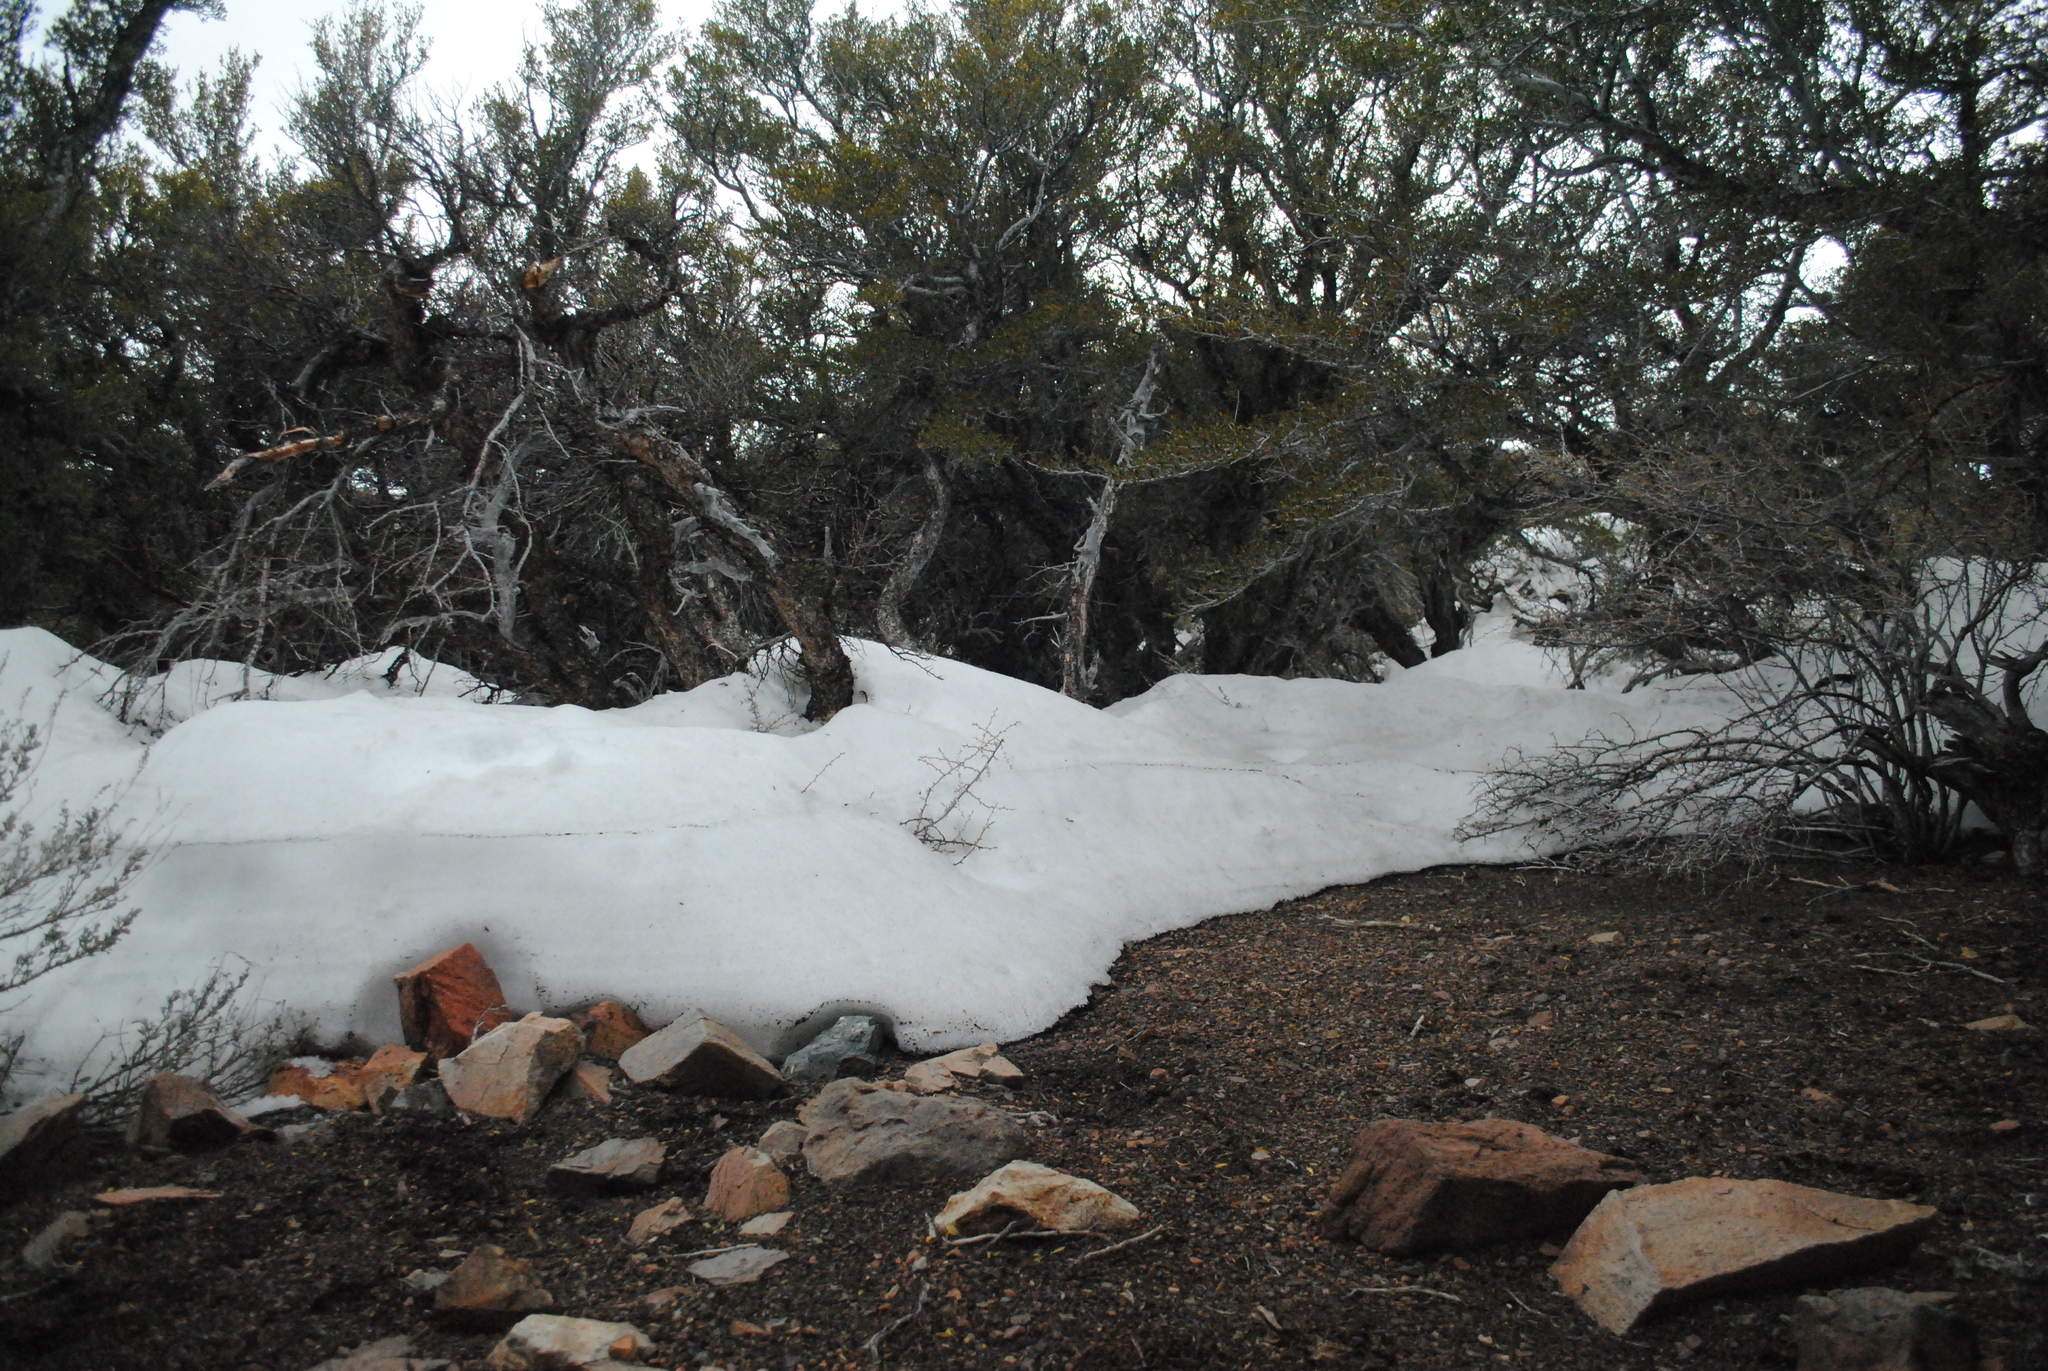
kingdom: Plantae
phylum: Tracheophyta
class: Magnoliopsida
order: Rosales
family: Rosaceae
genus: Cercocarpus
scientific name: Cercocarpus ledifolius
